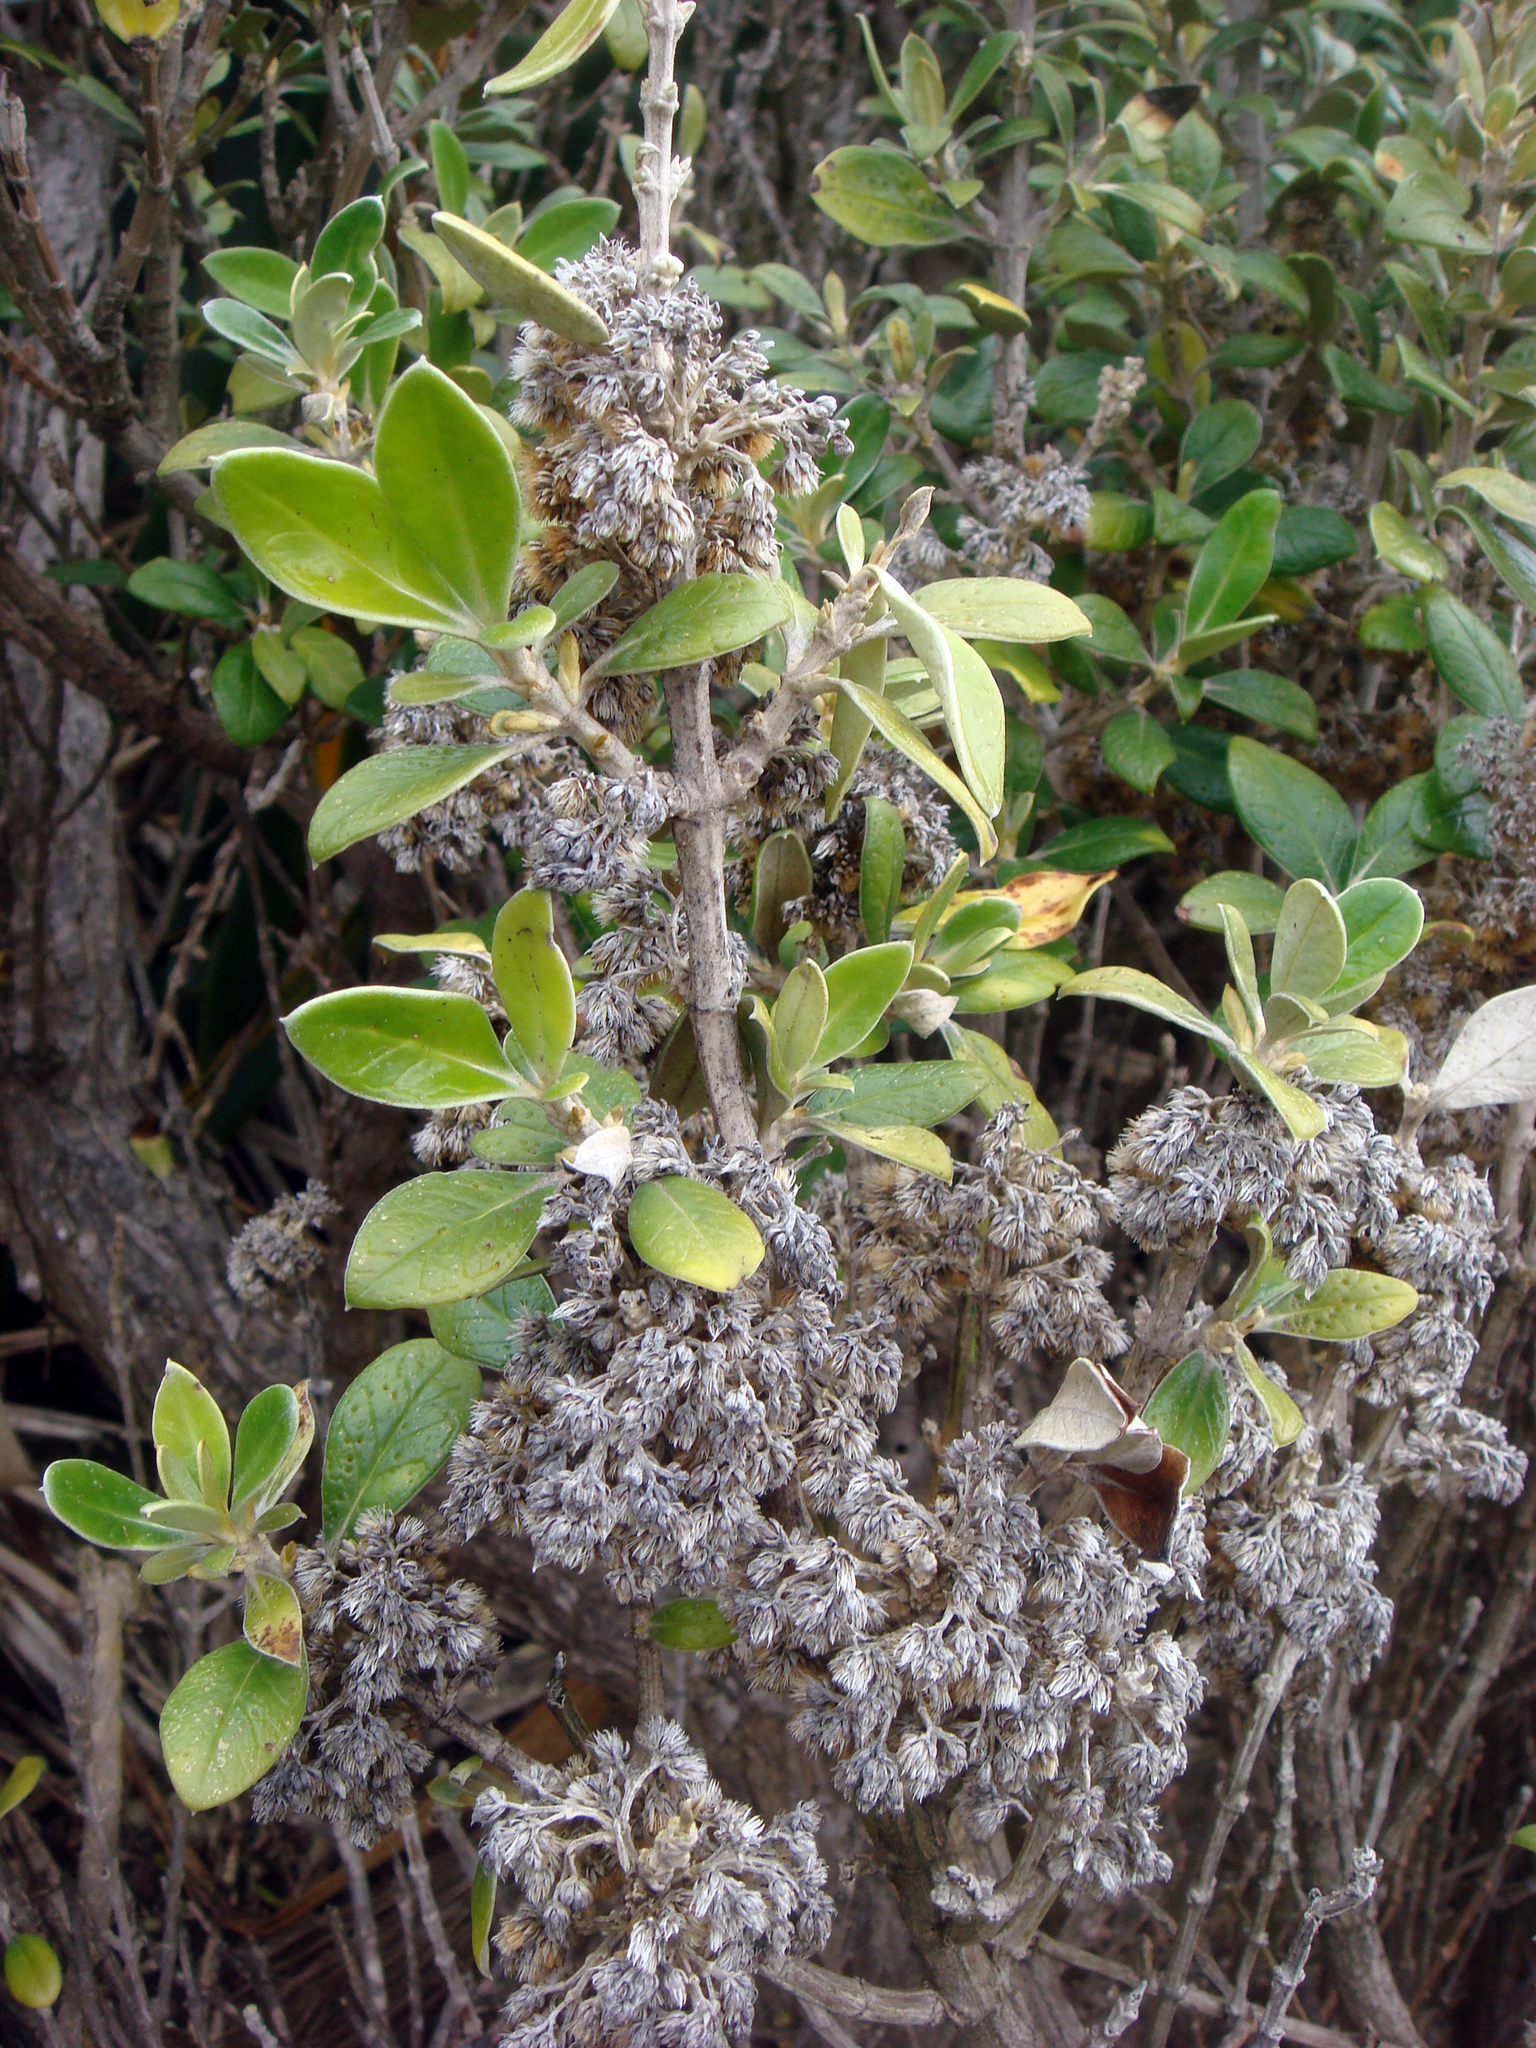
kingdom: Plantae
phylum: Tracheophyta
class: Magnoliopsida
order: Asterales
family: Asteraceae
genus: Olearia
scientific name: Olearia traversiorum
